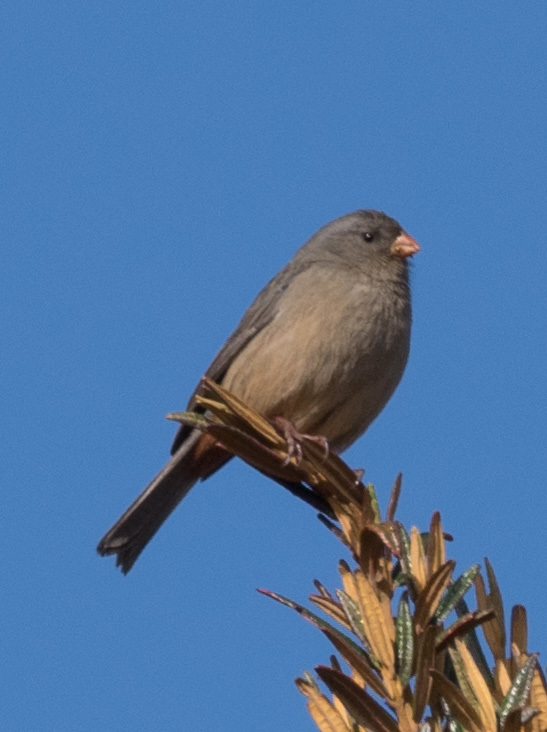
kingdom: Animalia
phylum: Chordata
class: Aves
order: Passeriformes
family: Thraupidae
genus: Catamenia
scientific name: Catamenia inornata
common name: Plain-colored seedeater
